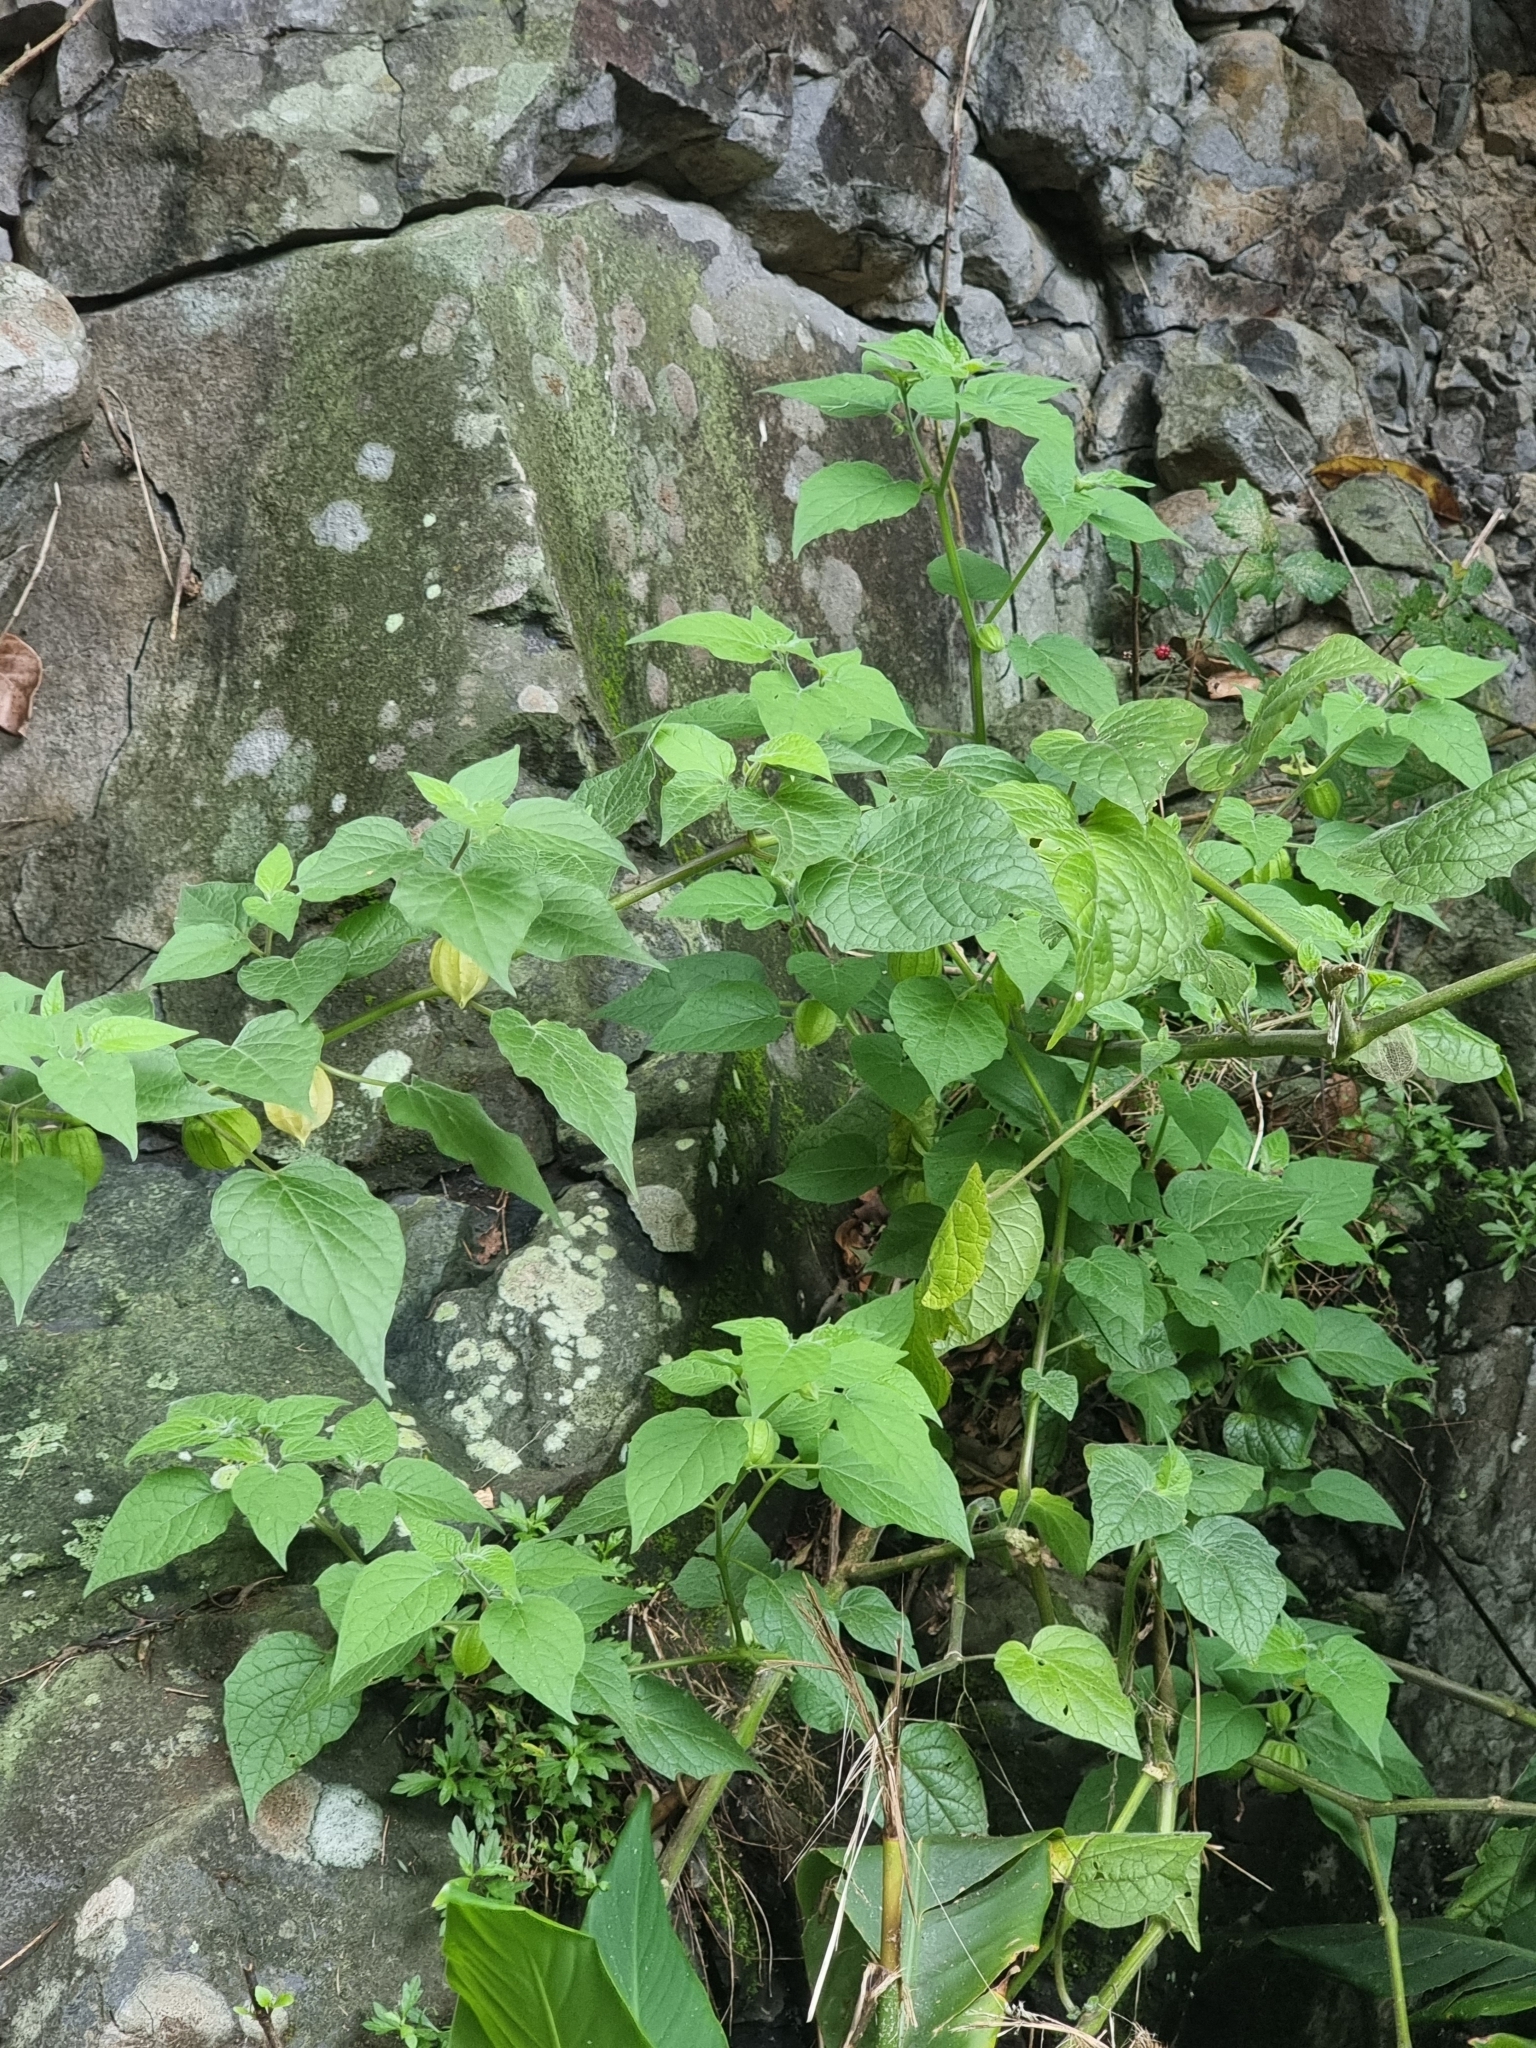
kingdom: Plantae
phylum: Tracheophyta
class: Magnoliopsida
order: Solanales
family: Solanaceae
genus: Physalis
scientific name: Physalis peruviana
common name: Cape-gooseberry
